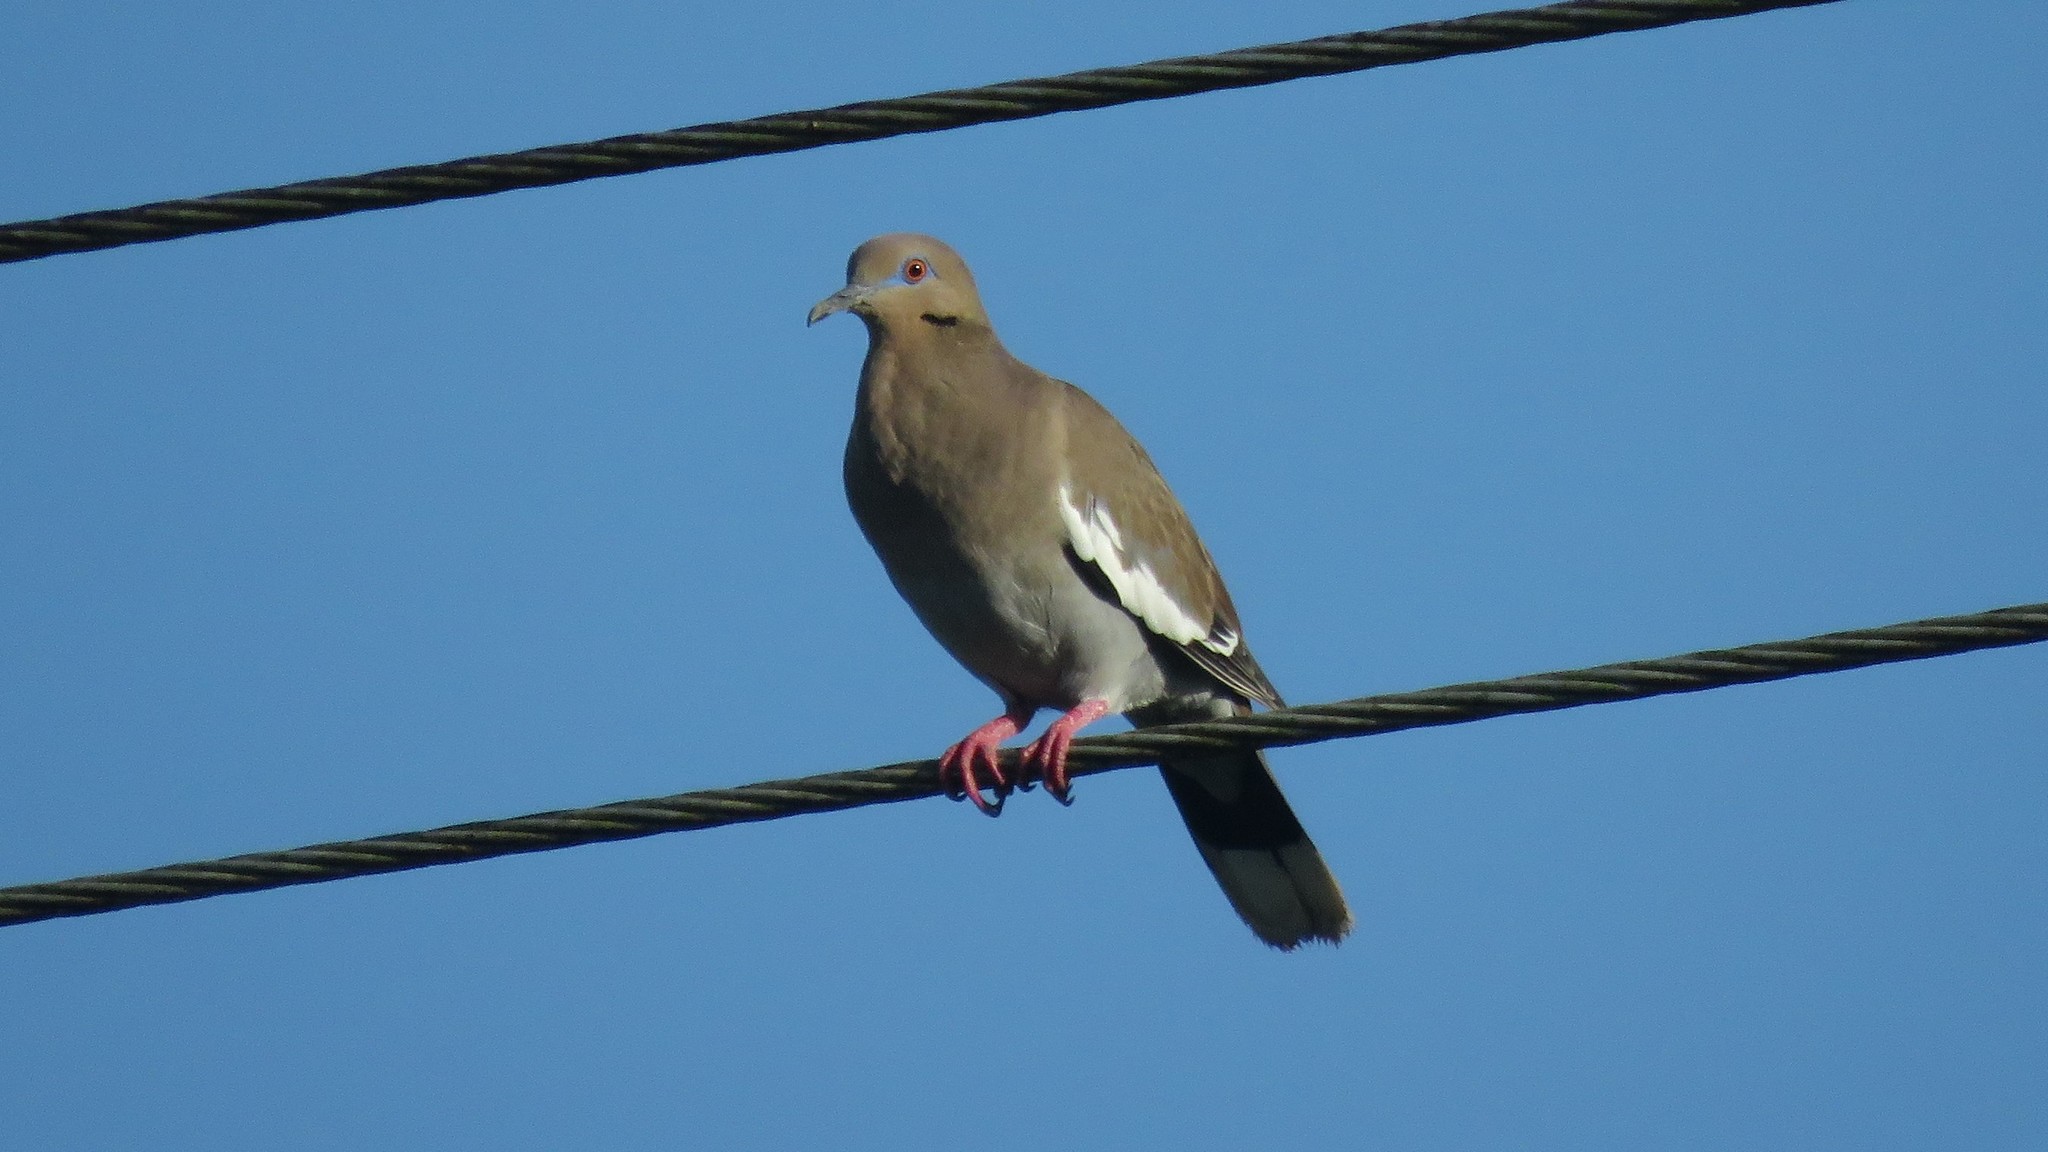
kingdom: Animalia
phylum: Chordata
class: Aves
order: Columbiformes
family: Columbidae
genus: Zenaida
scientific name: Zenaida asiatica
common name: White-winged dove
